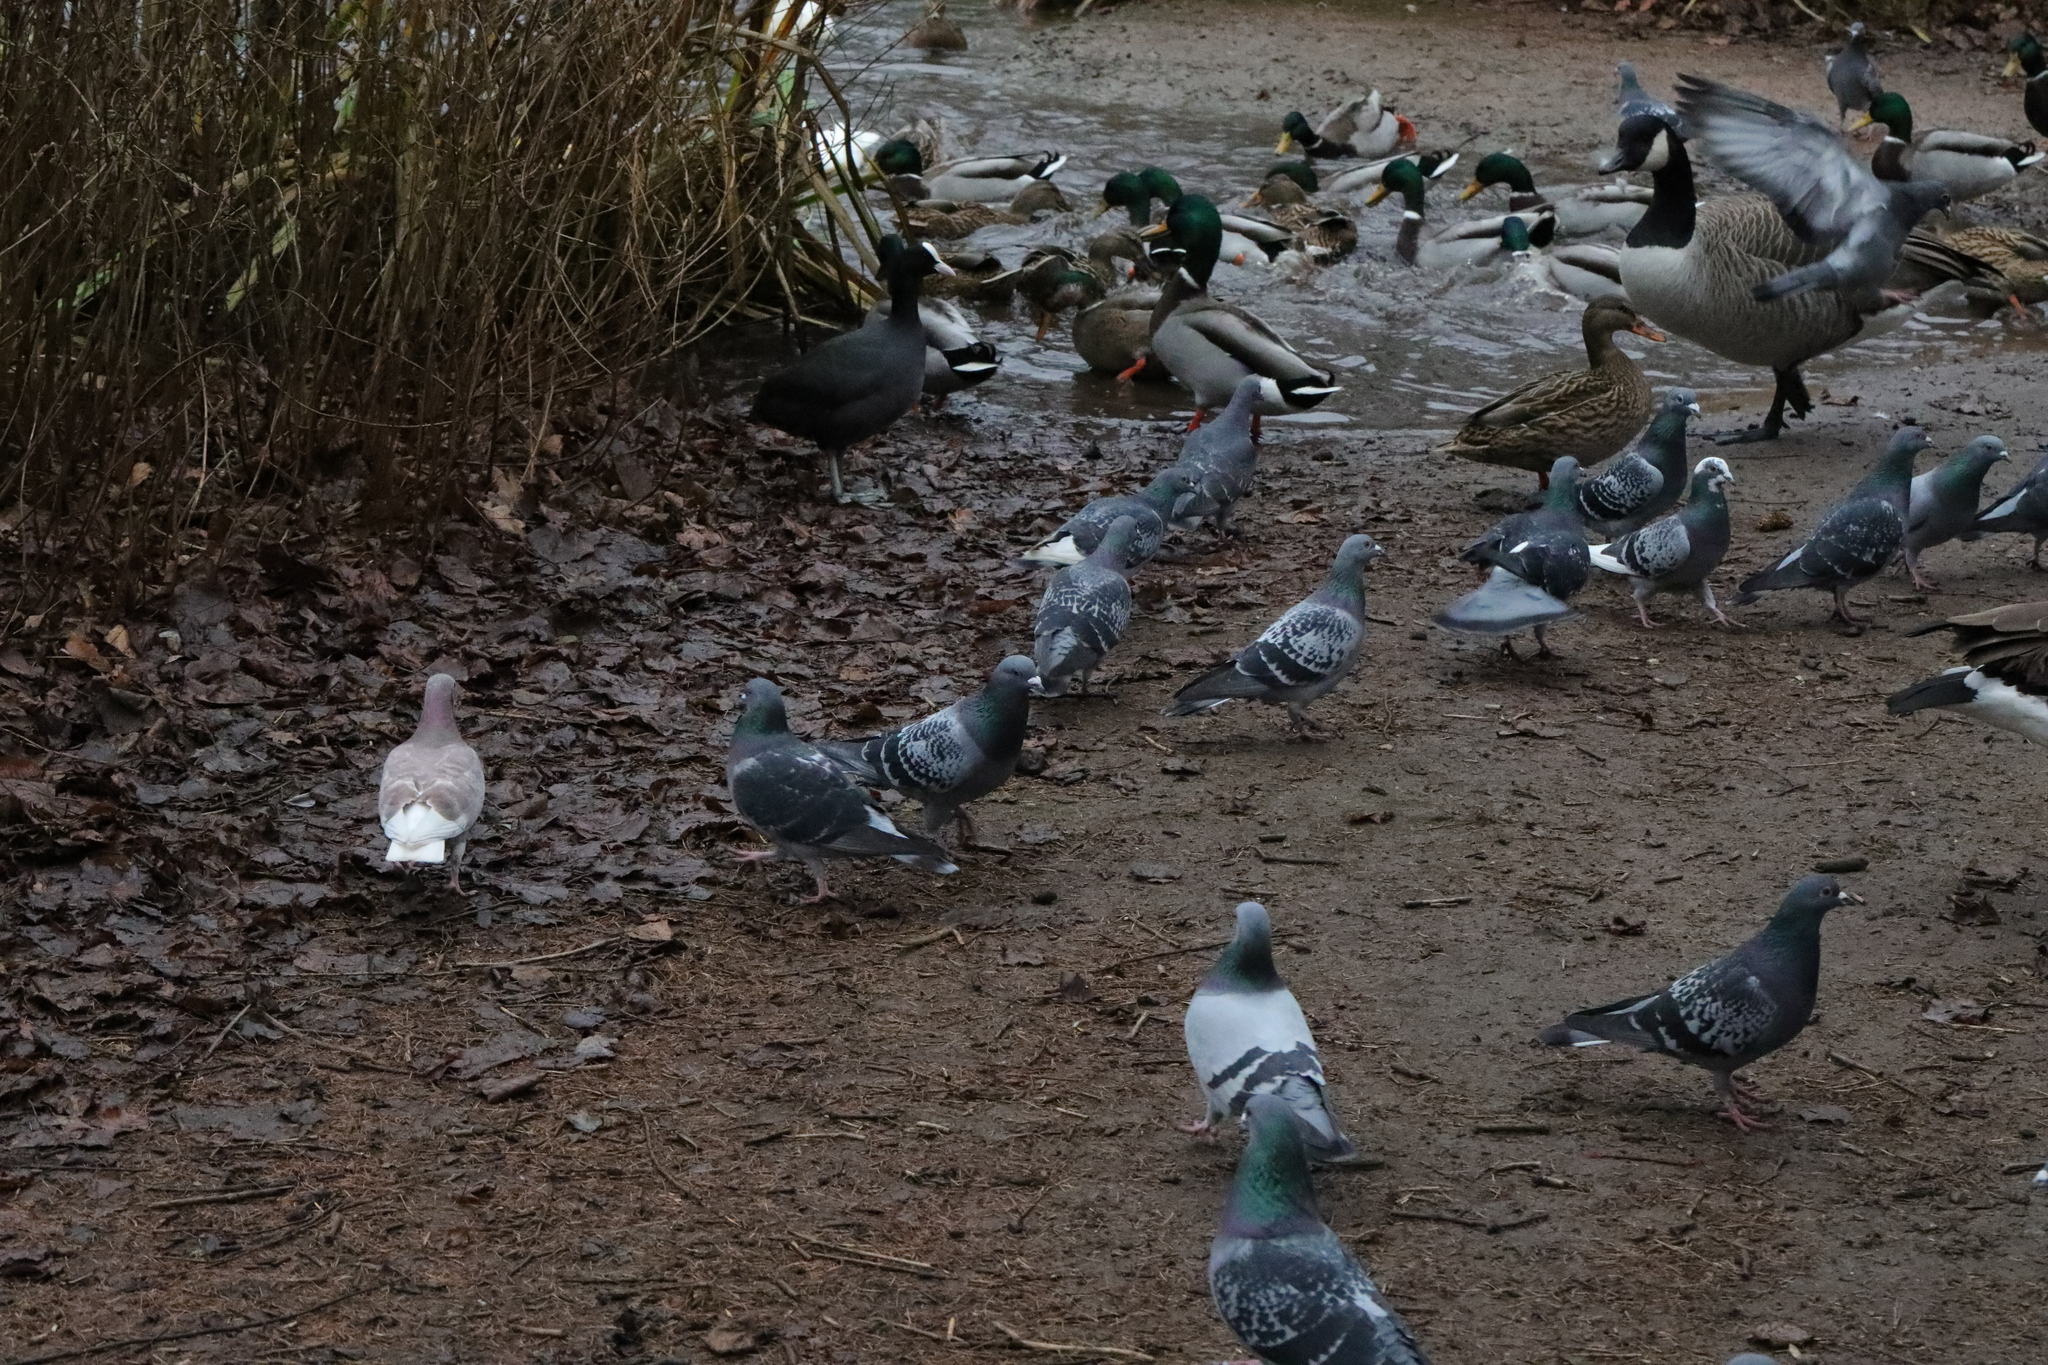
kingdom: Animalia
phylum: Chordata
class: Aves
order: Columbiformes
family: Columbidae
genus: Columba
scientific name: Columba livia
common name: Rock pigeon
